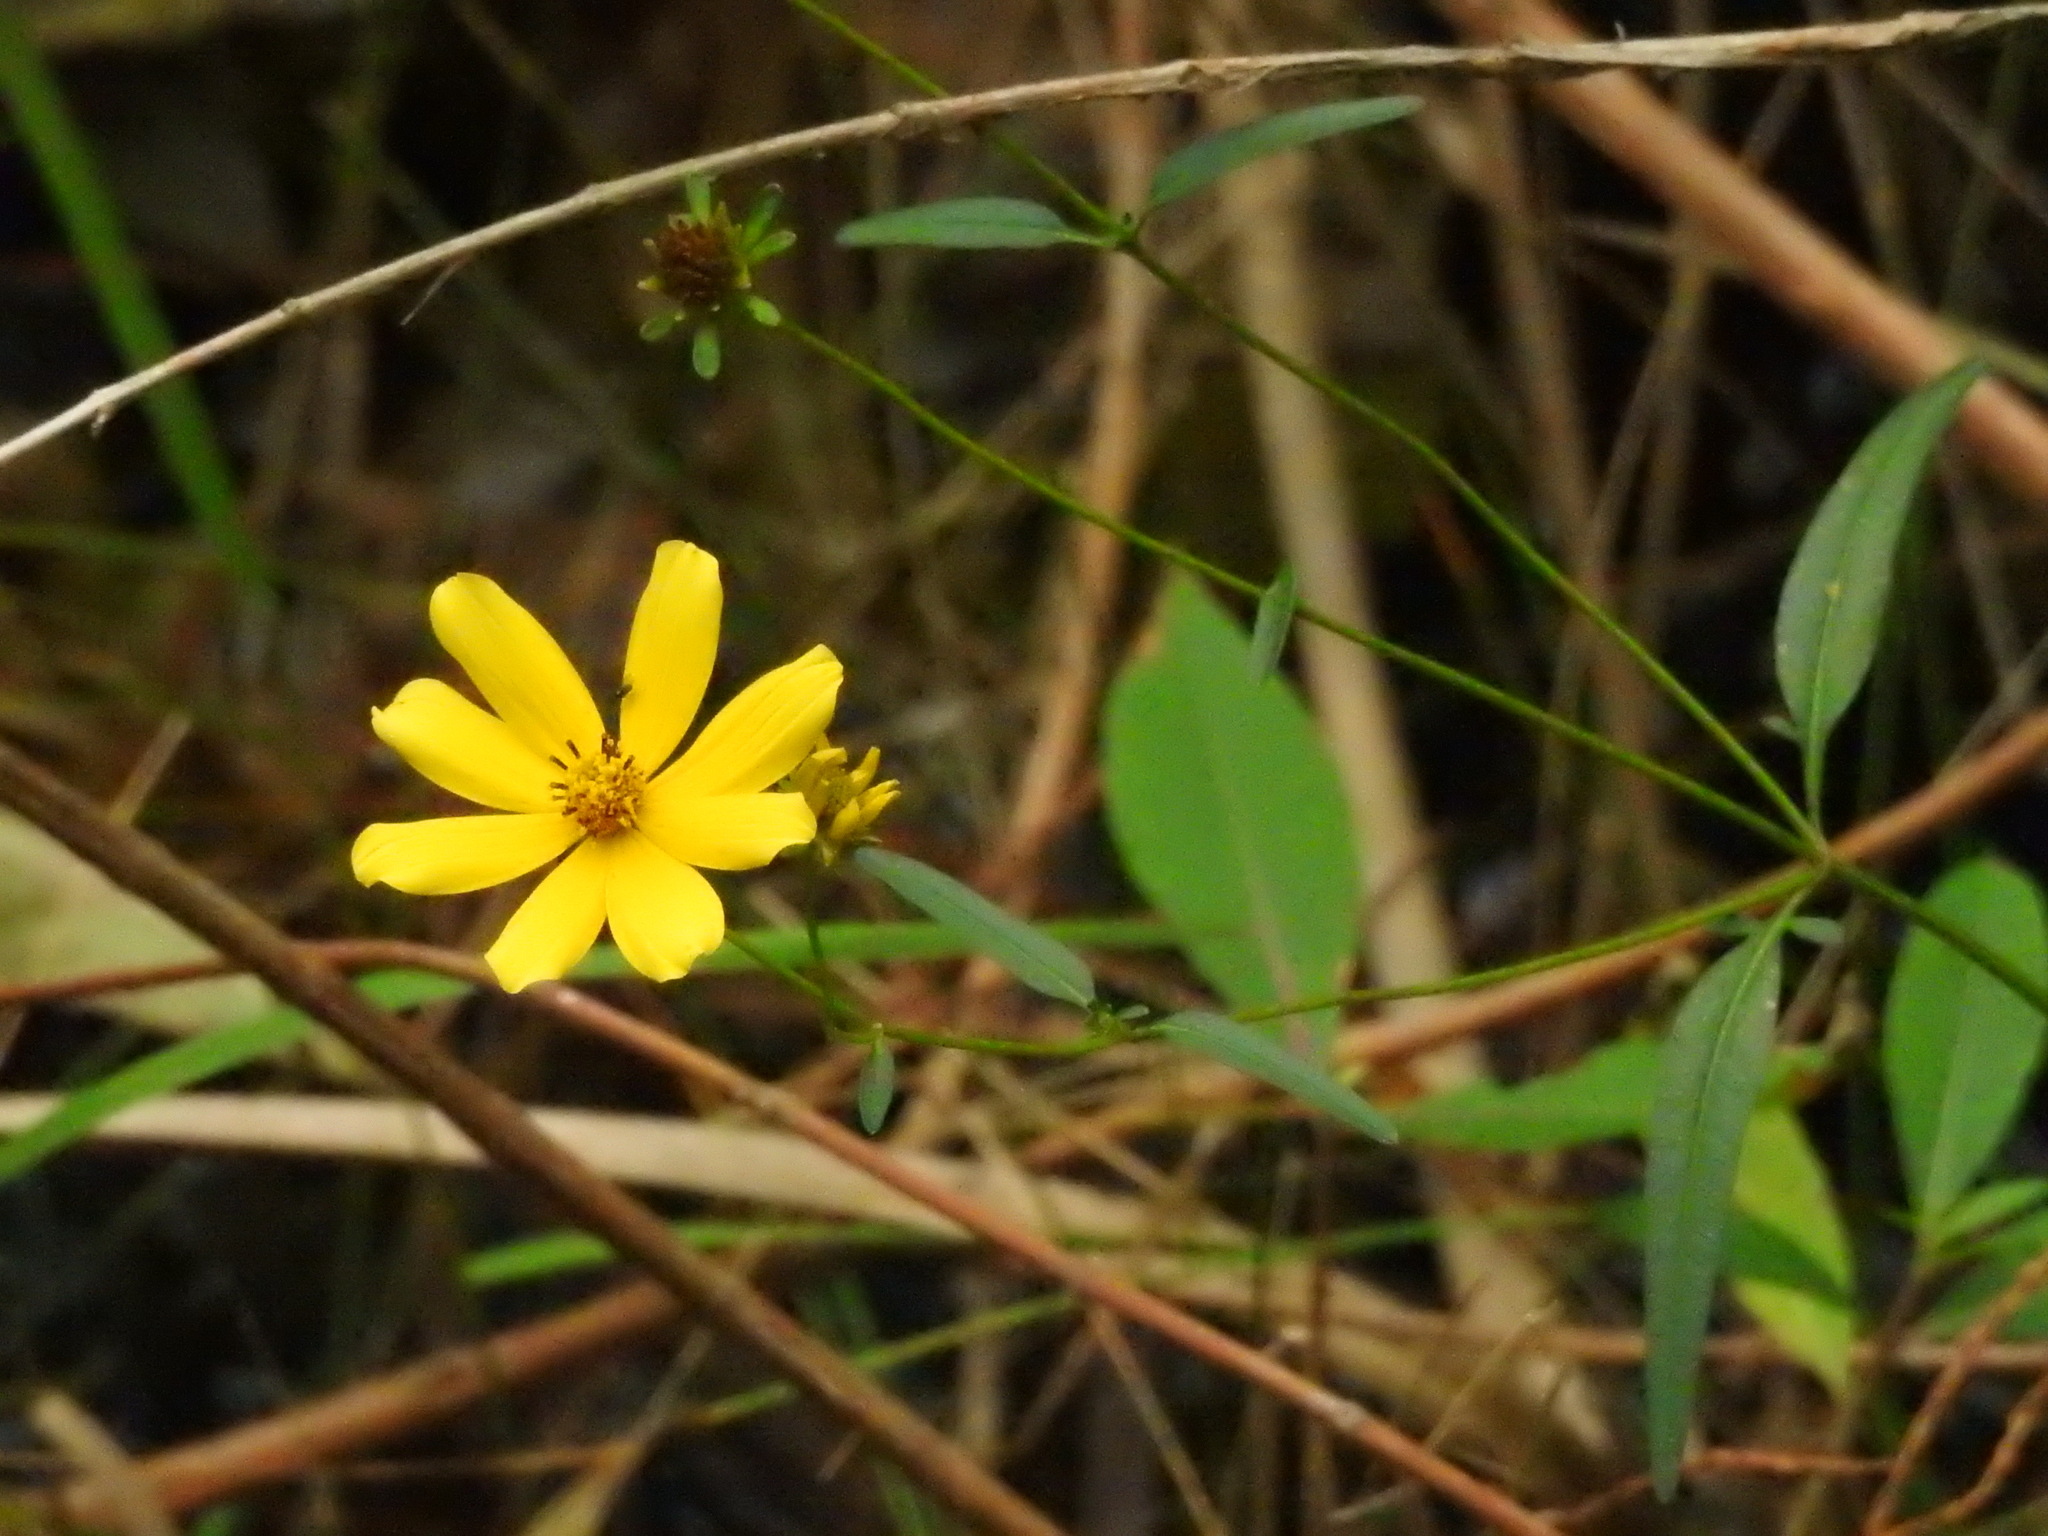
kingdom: Plantae
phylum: Tracheophyta
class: Magnoliopsida
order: Asterales
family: Asteraceae
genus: Bidens
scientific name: Bidens mitis
